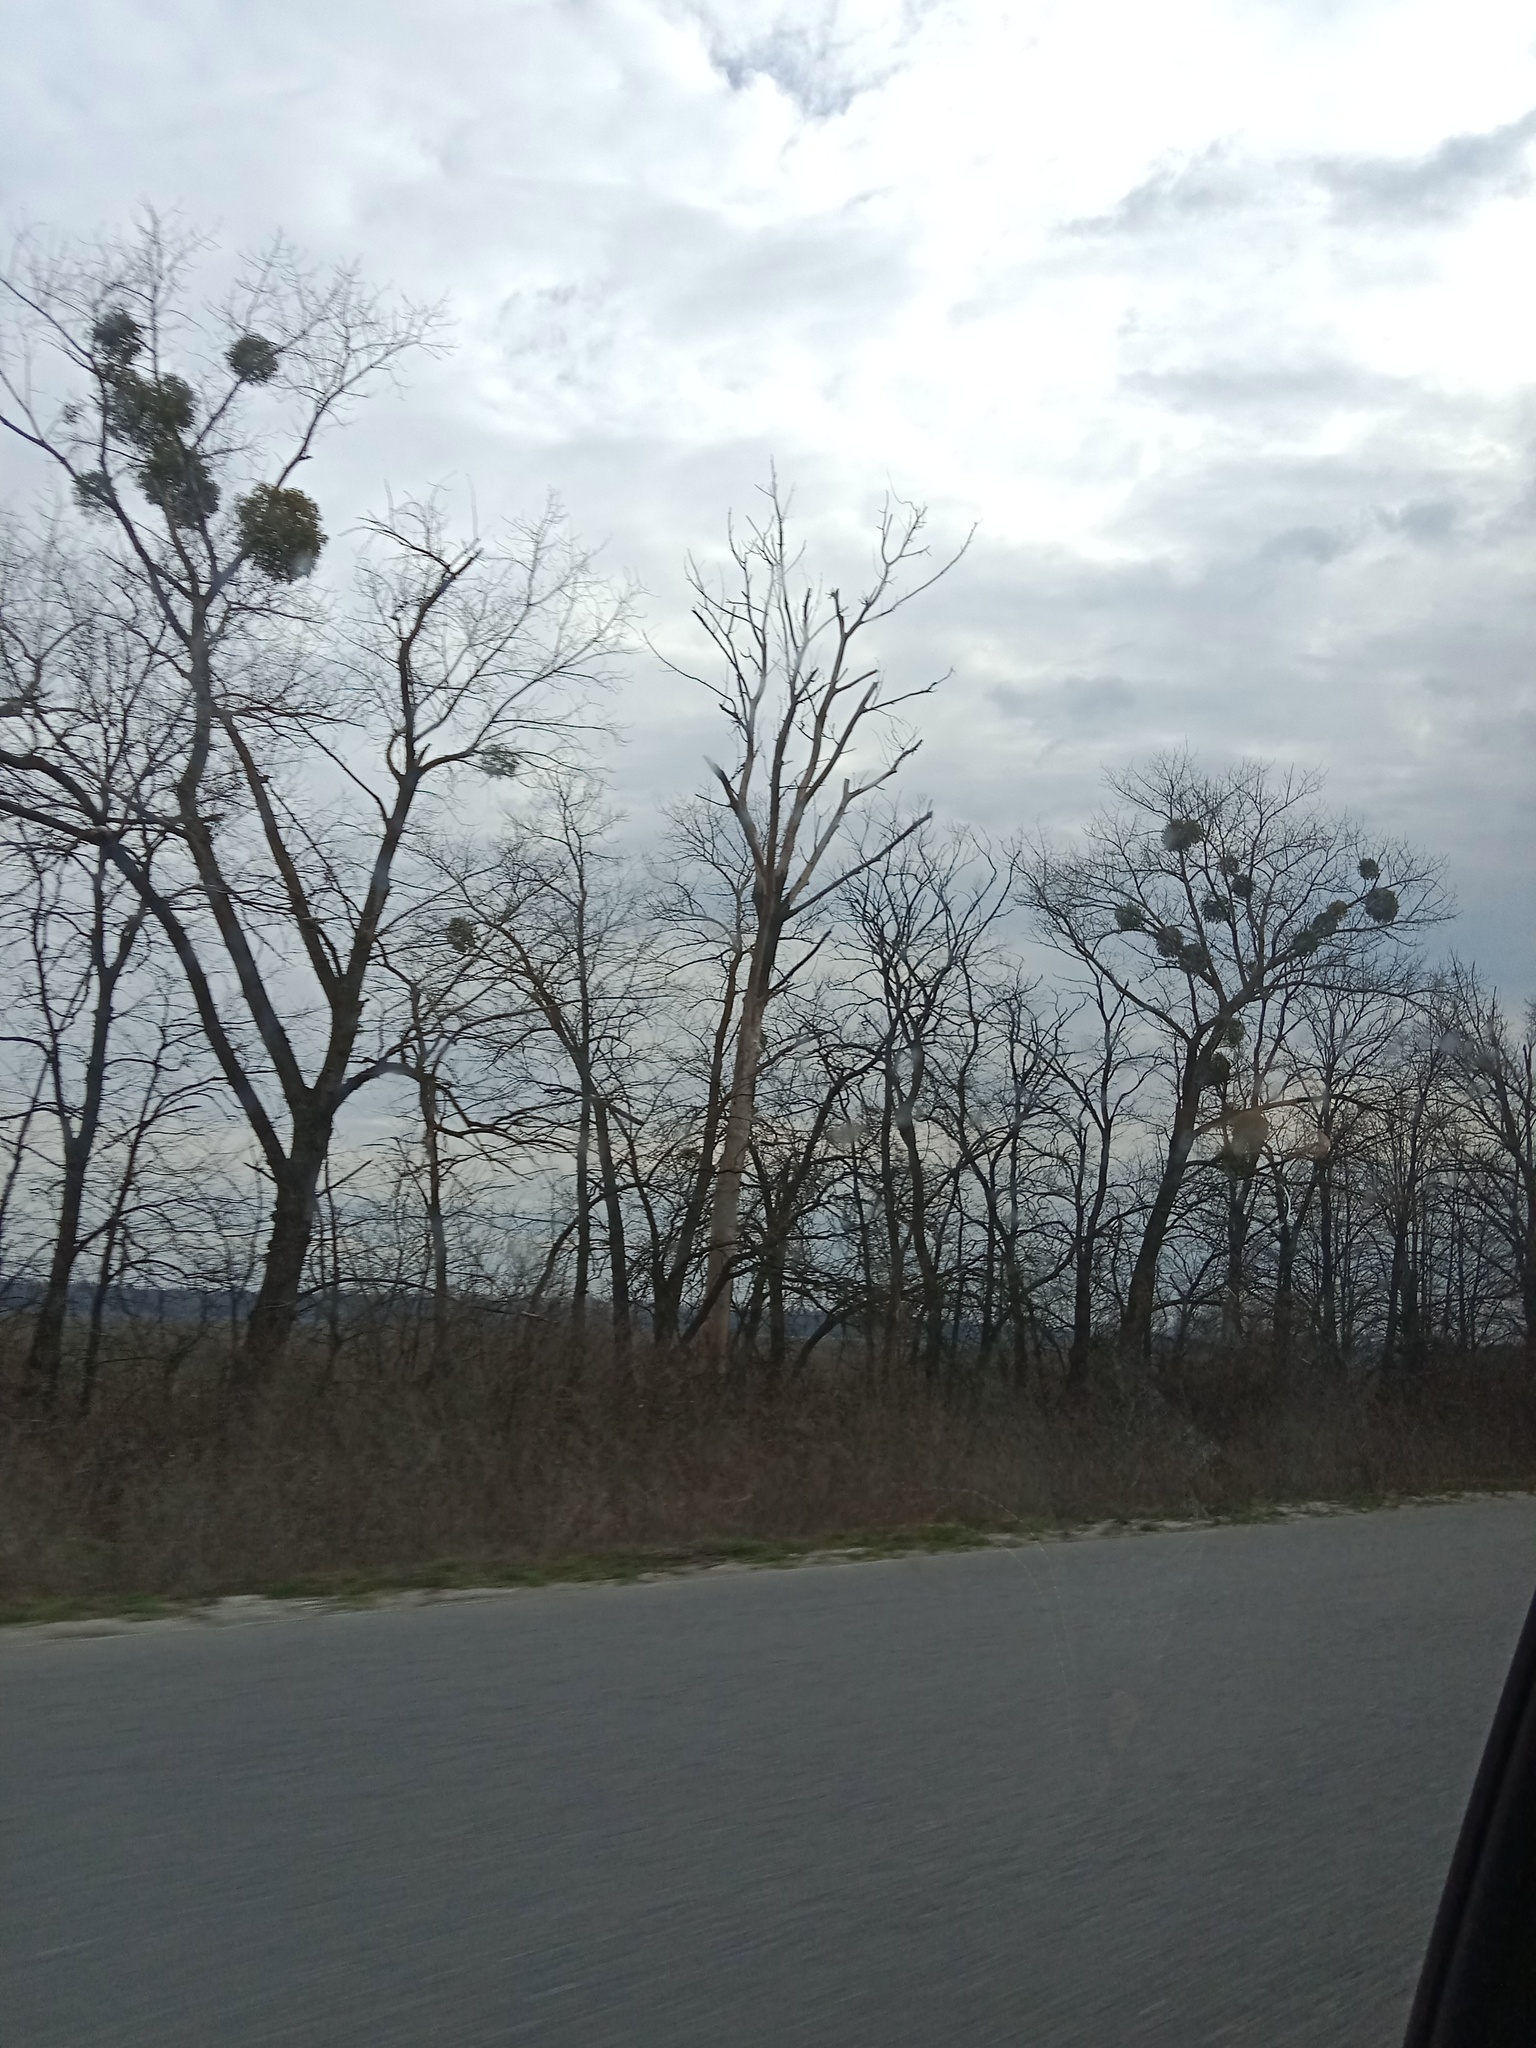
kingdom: Plantae
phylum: Tracheophyta
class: Magnoliopsida
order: Santalales
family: Viscaceae
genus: Viscum
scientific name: Viscum album
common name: Mistletoe
